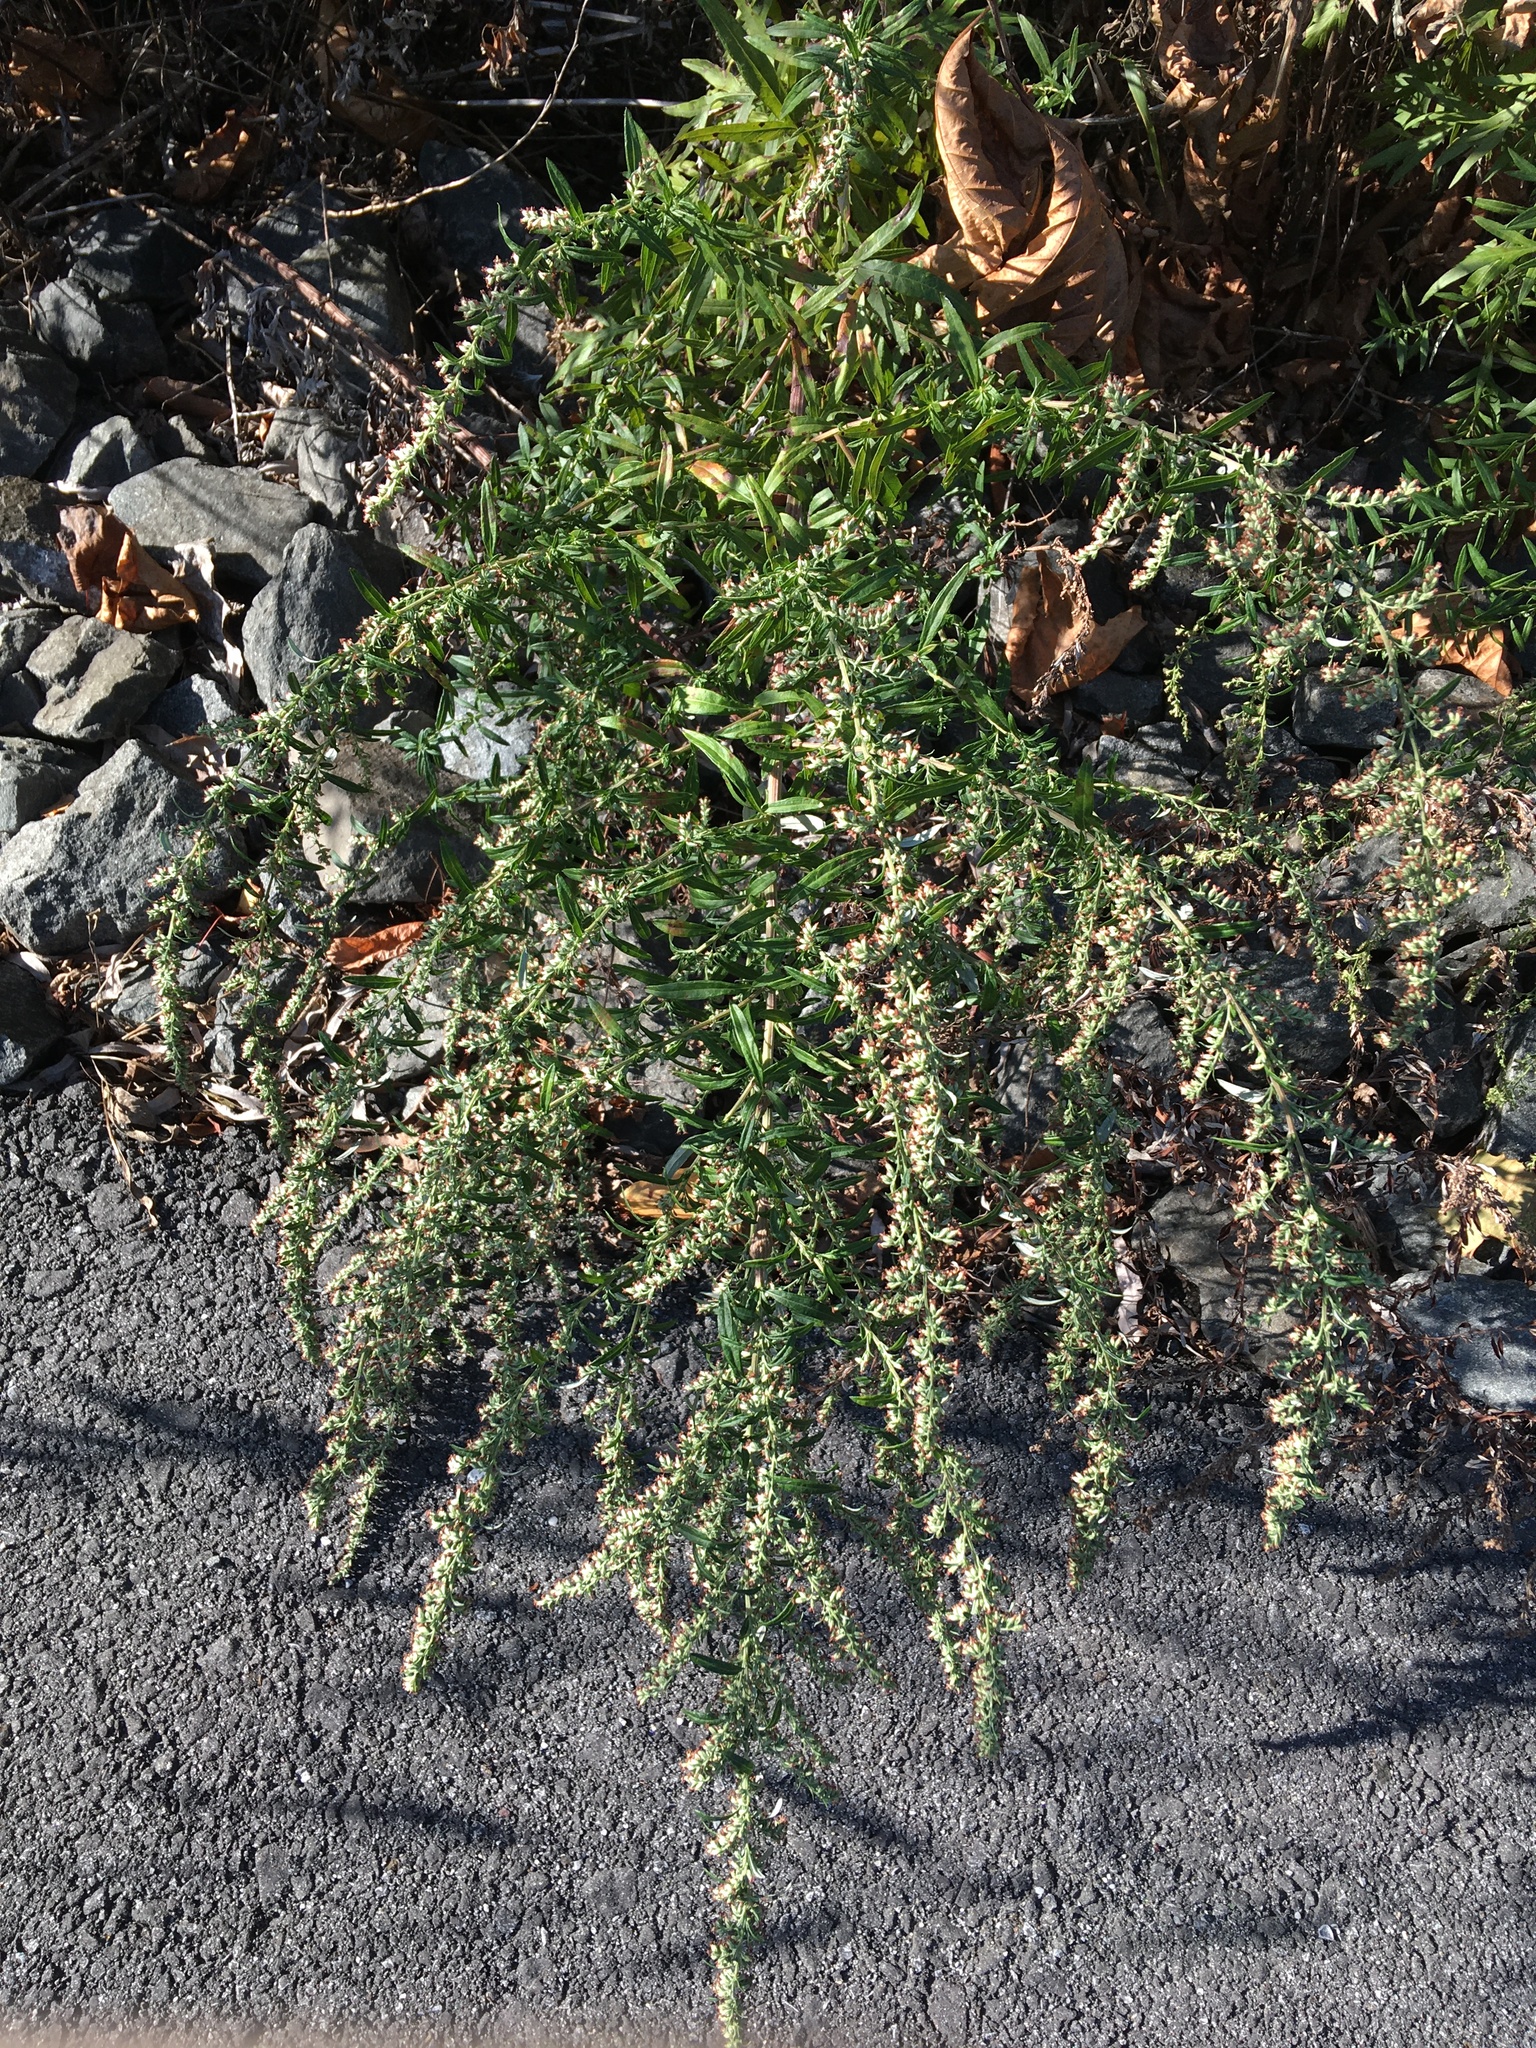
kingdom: Plantae
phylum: Tracheophyta
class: Magnoliopsida
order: Asterales
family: Asteraceae
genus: Artemisia
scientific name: Artemisia vulgaris
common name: Mugwort
